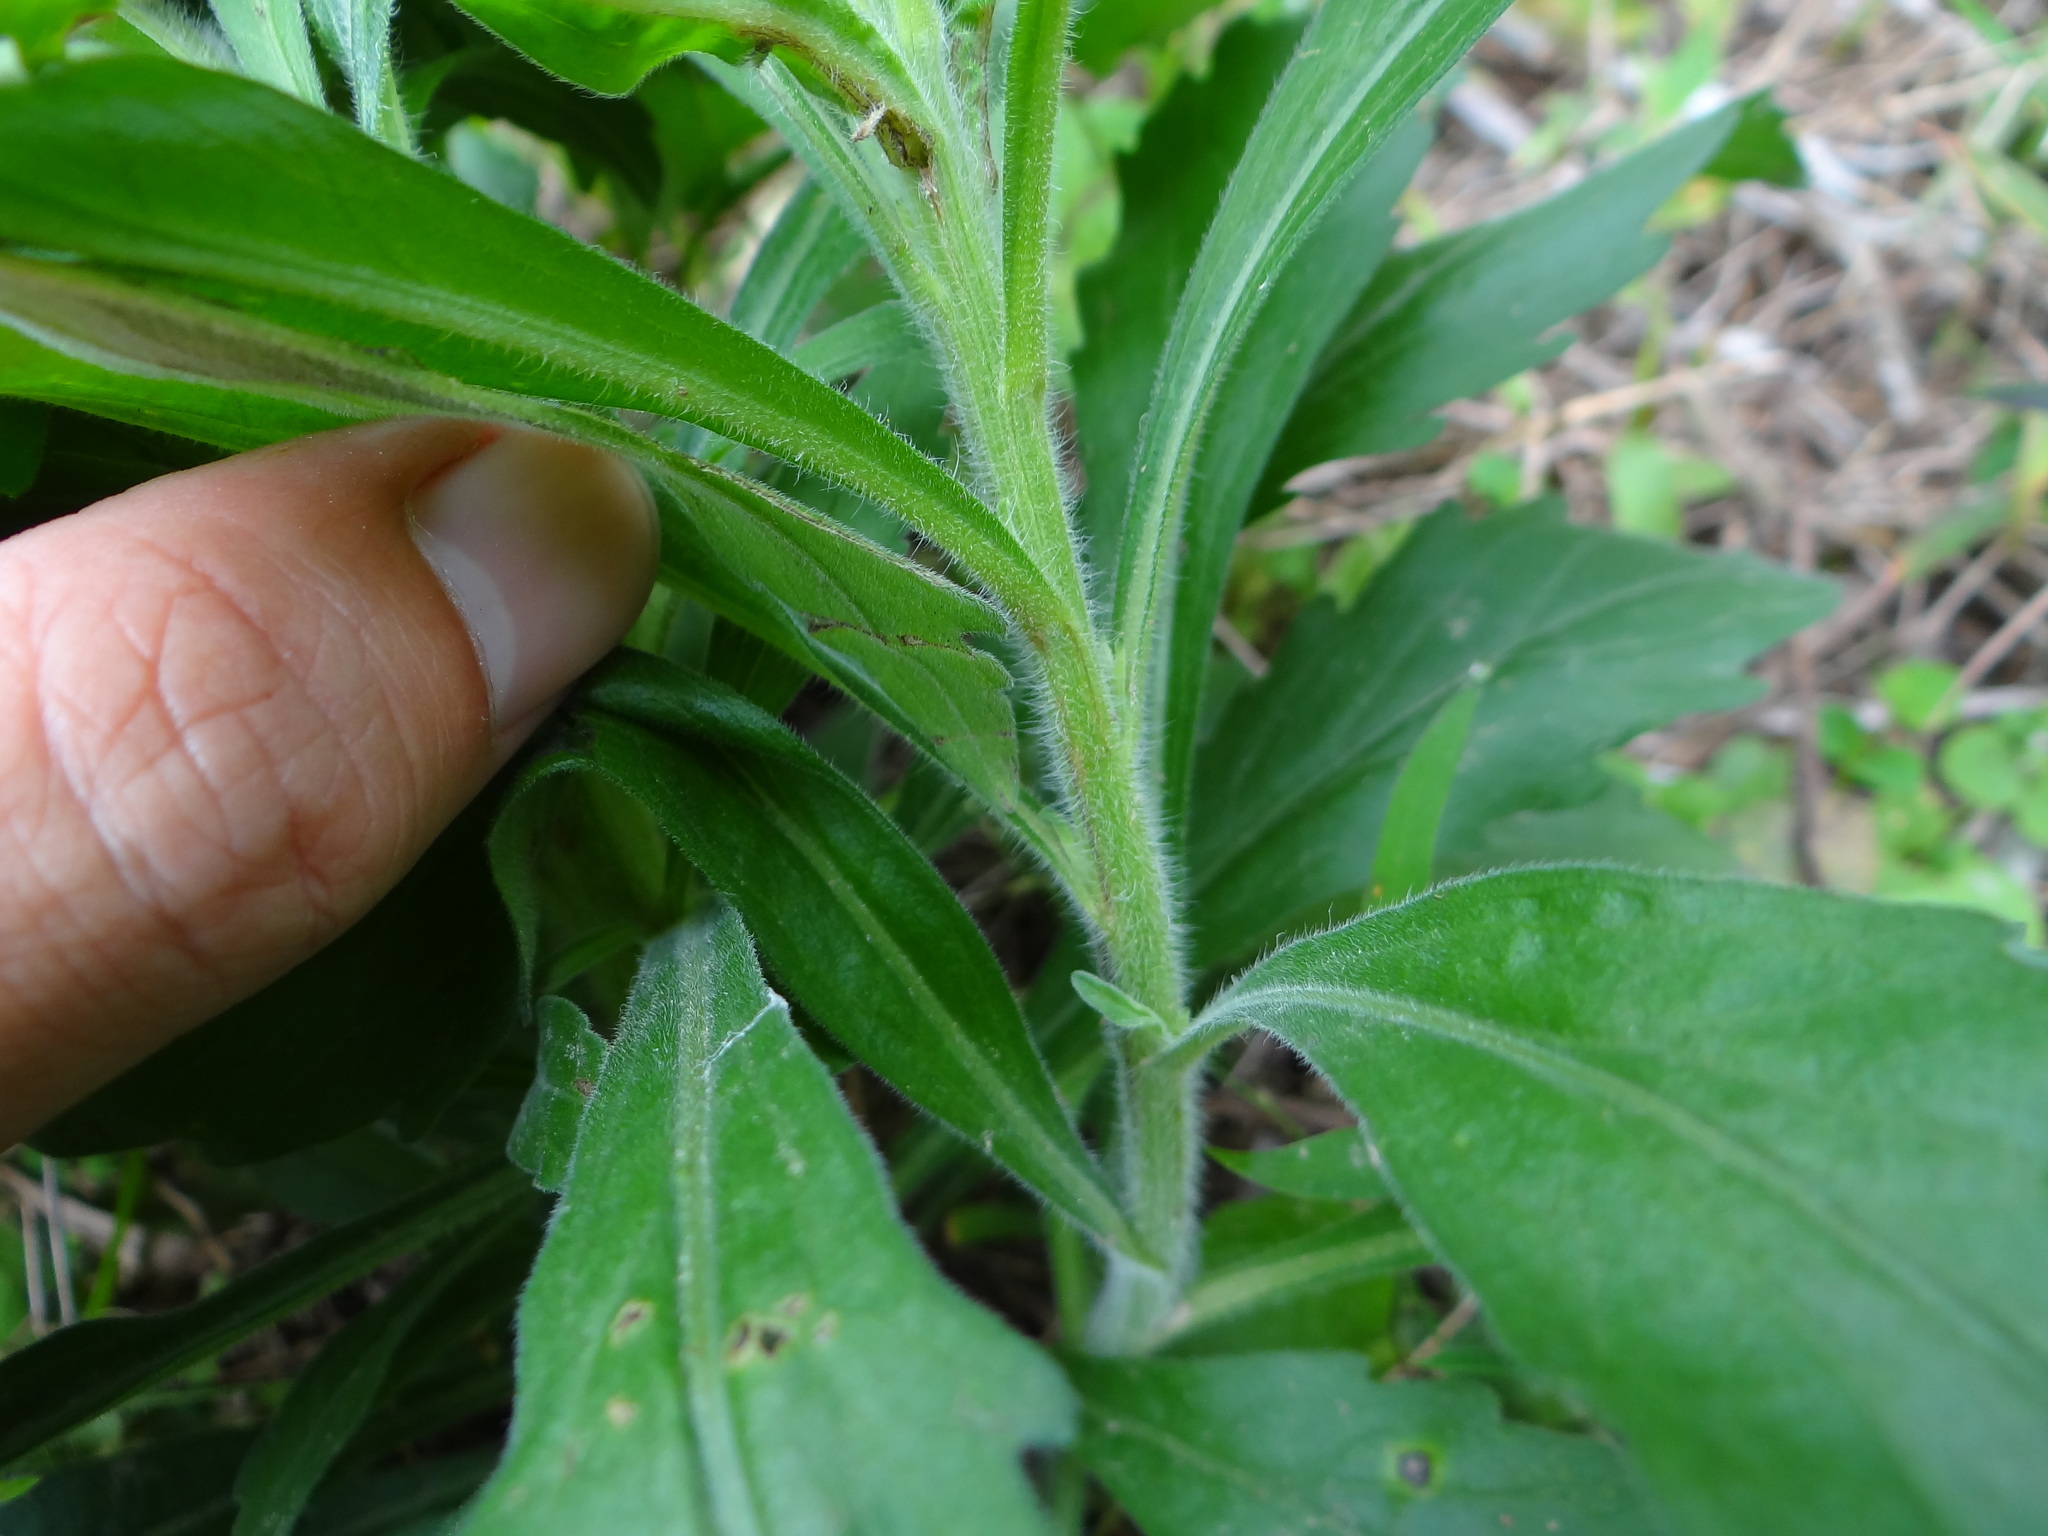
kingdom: Plantae
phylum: Tracheophyta
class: Magnoliopsida
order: Asterales
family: Asteraceae
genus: Erigeron
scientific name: Erigeron sumatrensis
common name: Daisy
